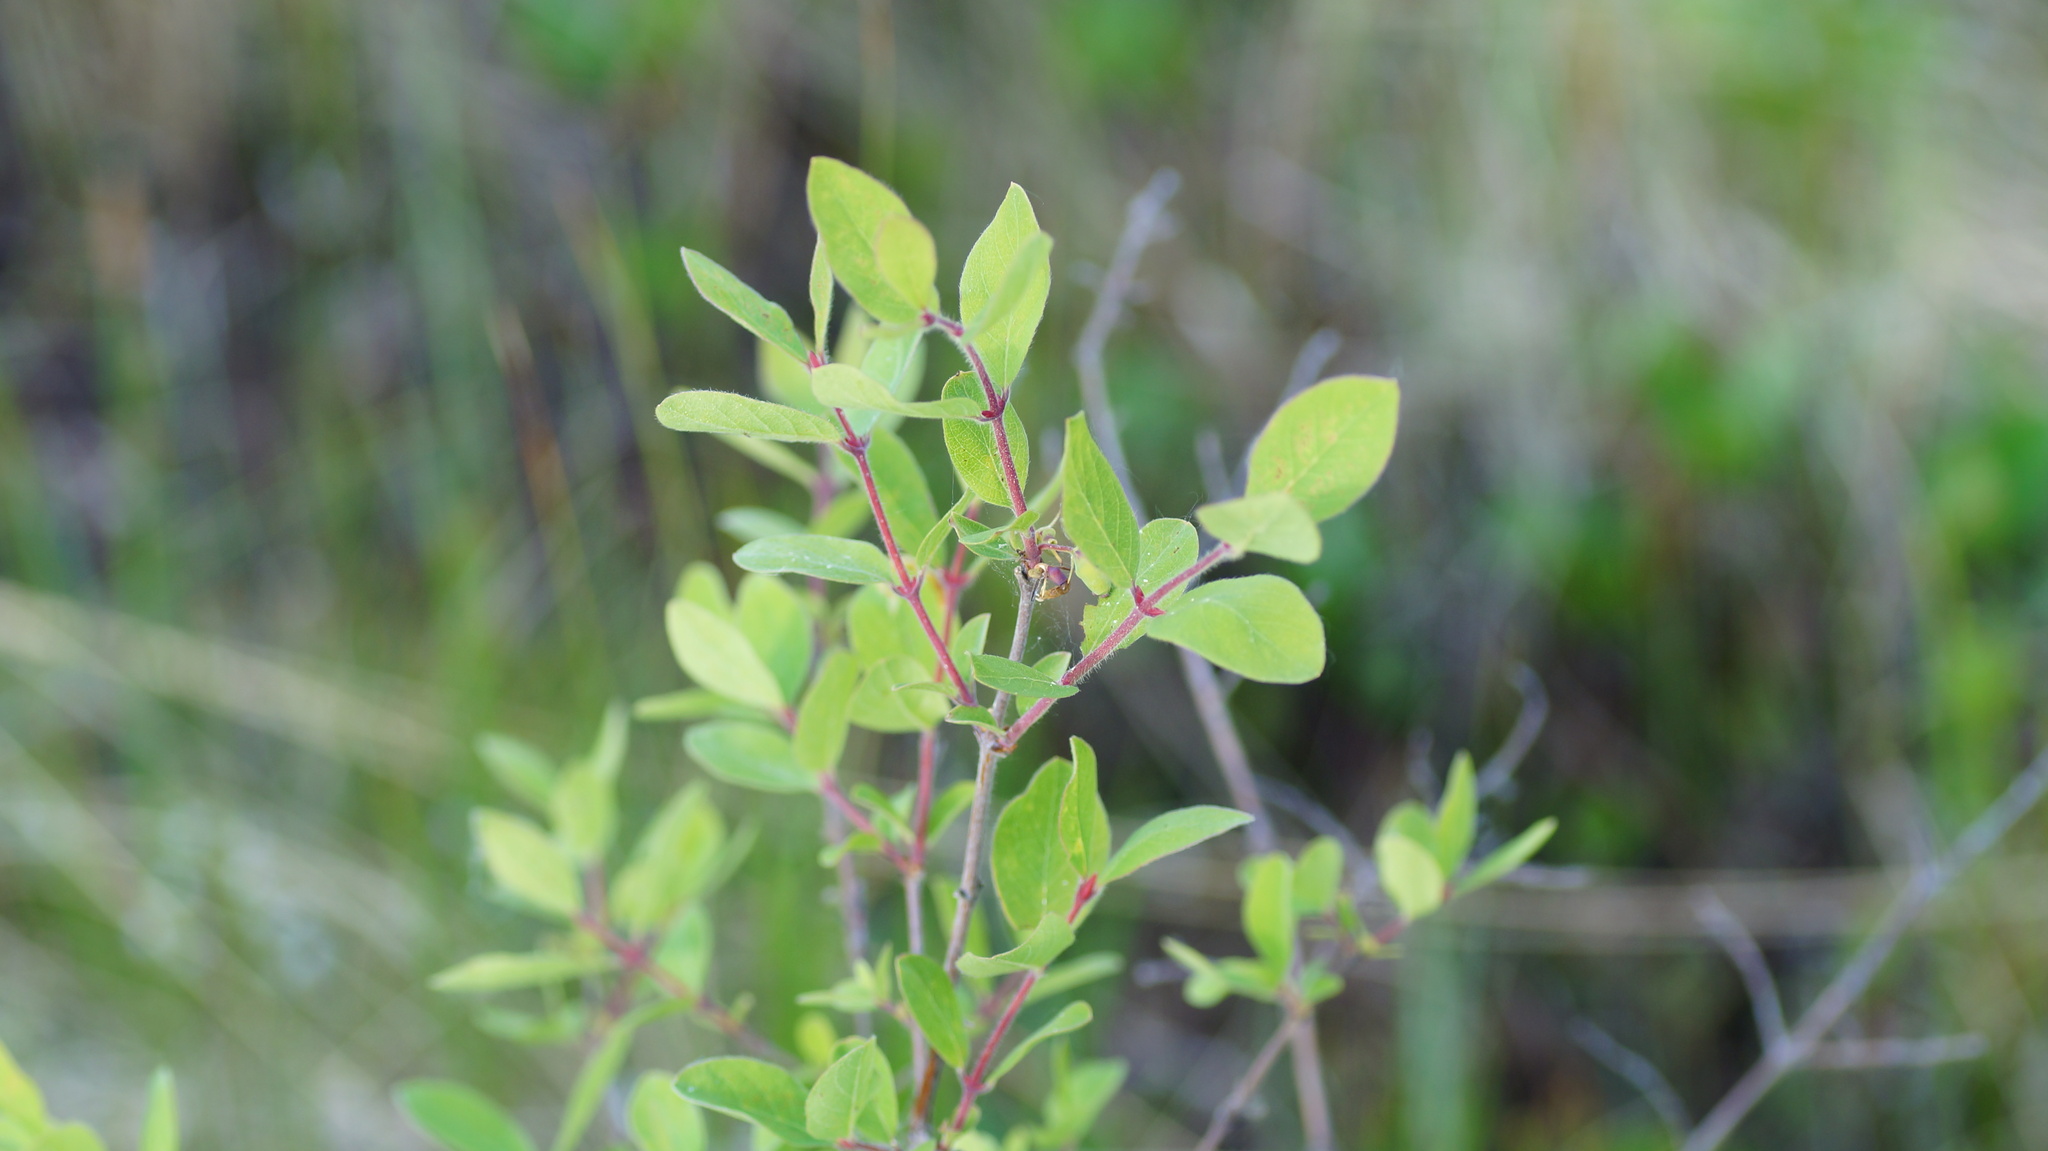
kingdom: Plantae
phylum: Tracheophyta
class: Magnoliopsida
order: Dipsacales
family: Caprifoliaceae
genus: Lonicera
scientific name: Lonicera caerulea
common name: Blue honeysuckle
